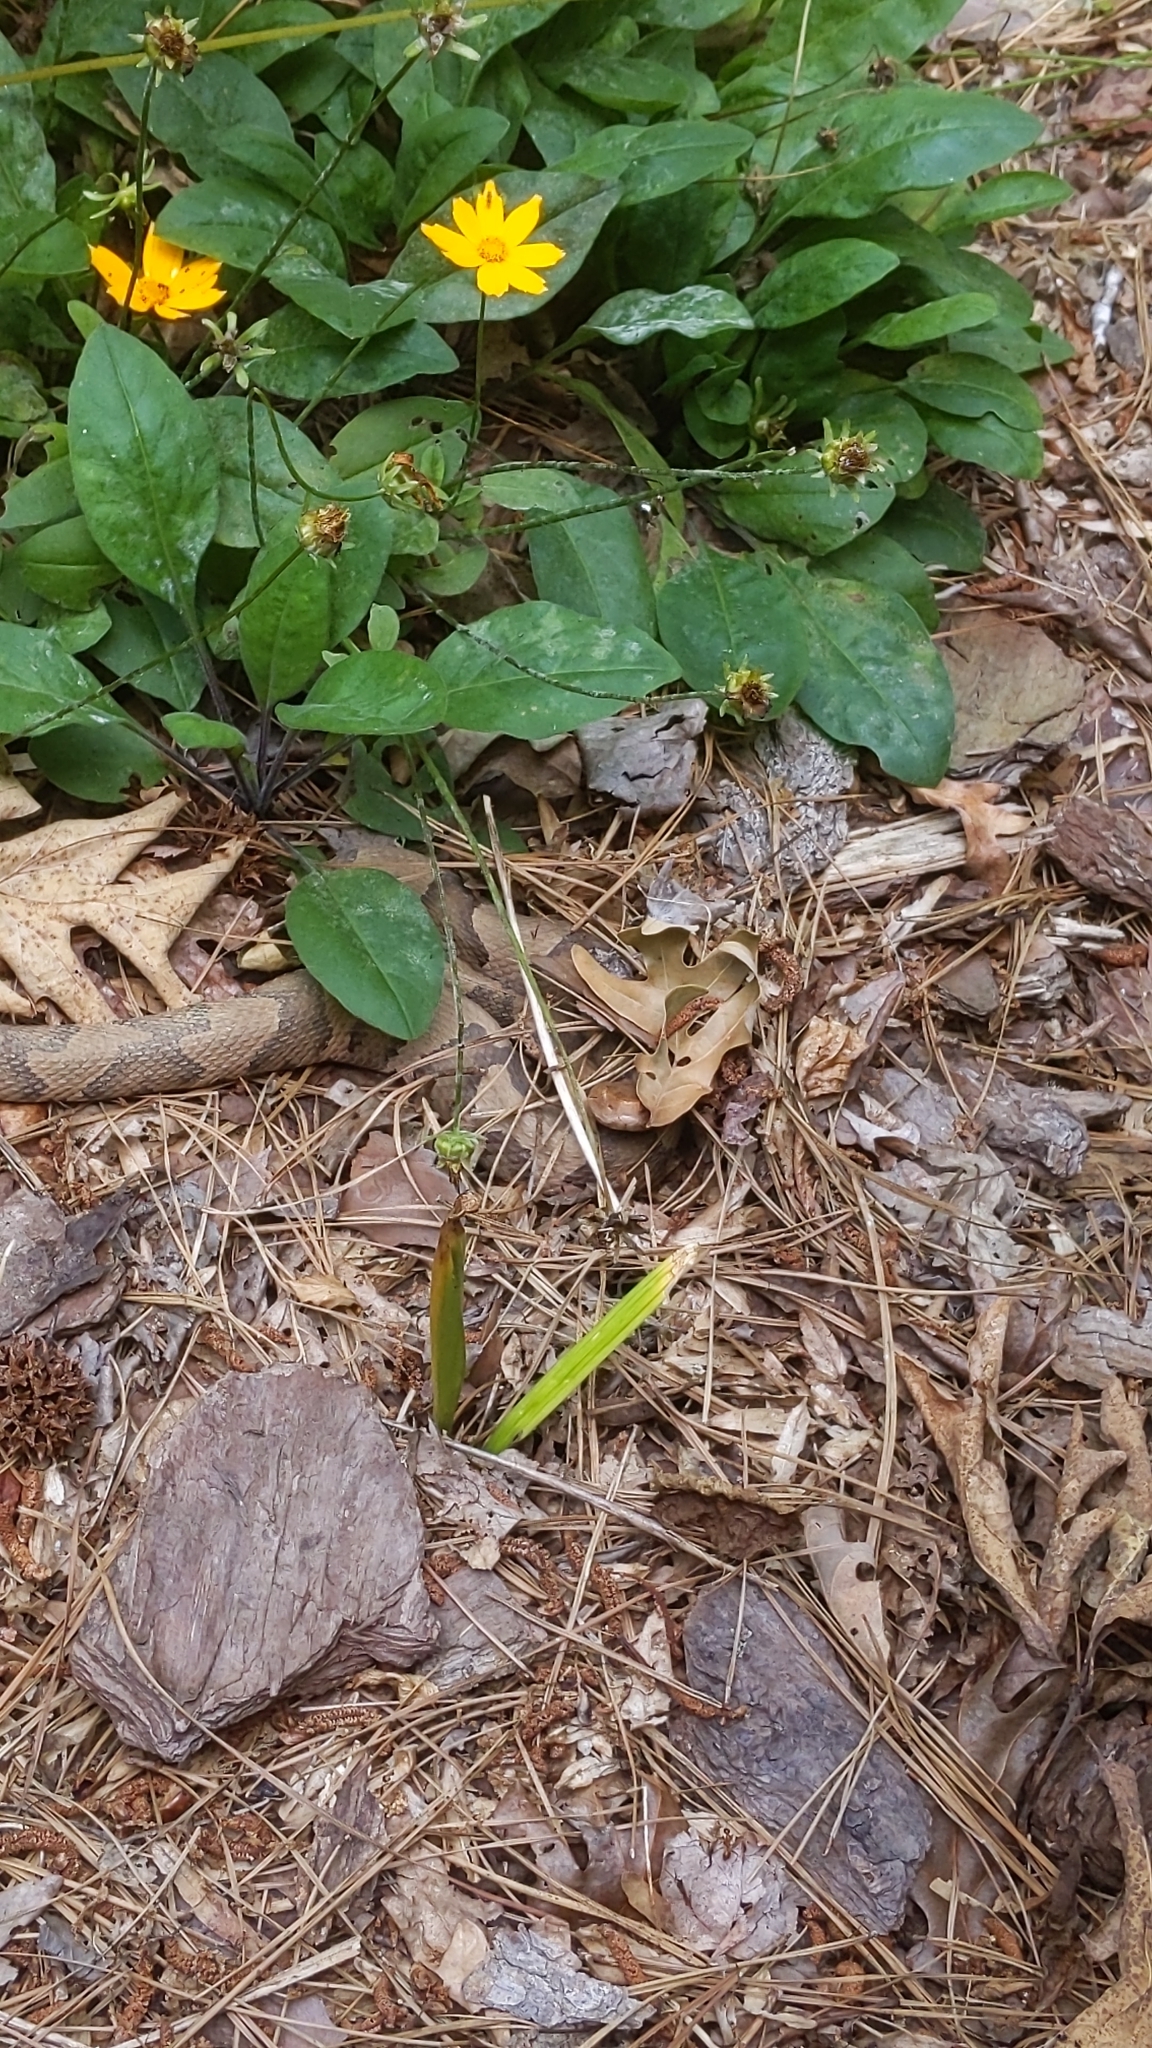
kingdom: Animalia
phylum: Chordata
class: Squamata
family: Viperidae
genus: Agkistrodon
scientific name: Agkistrodon contortrix
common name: Northern copperhead
